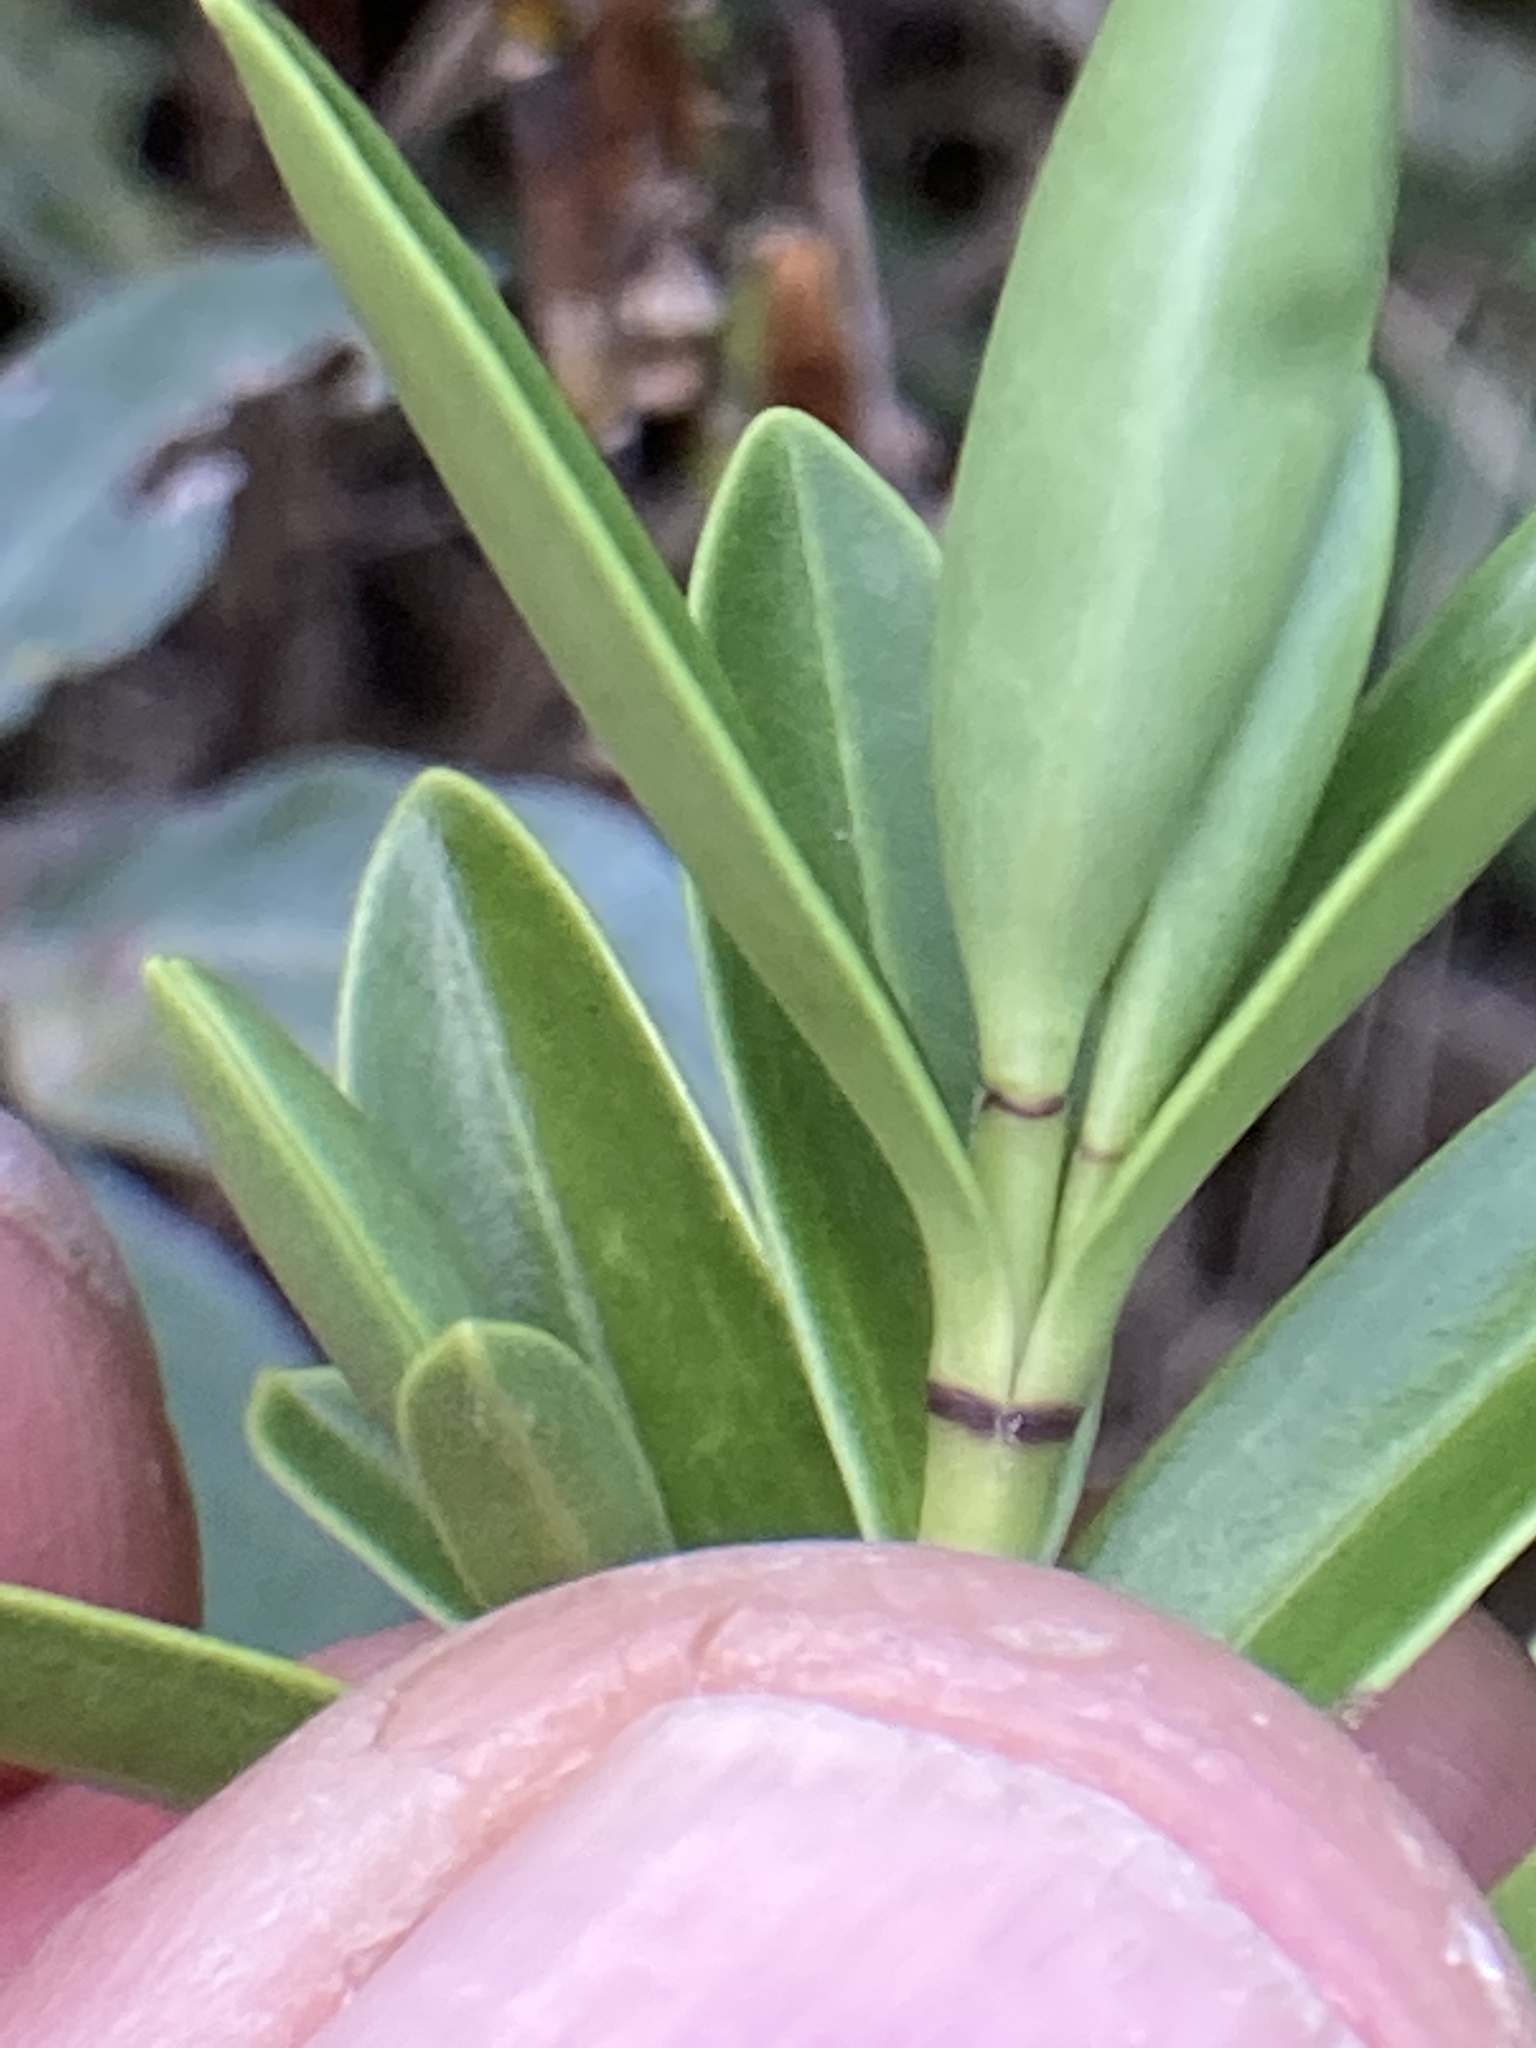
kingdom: Plantae
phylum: Tracheophyta
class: Magnoliopsida
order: Lamiales
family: Plantaginaceae
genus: Veronica
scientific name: Veronica subalpina
